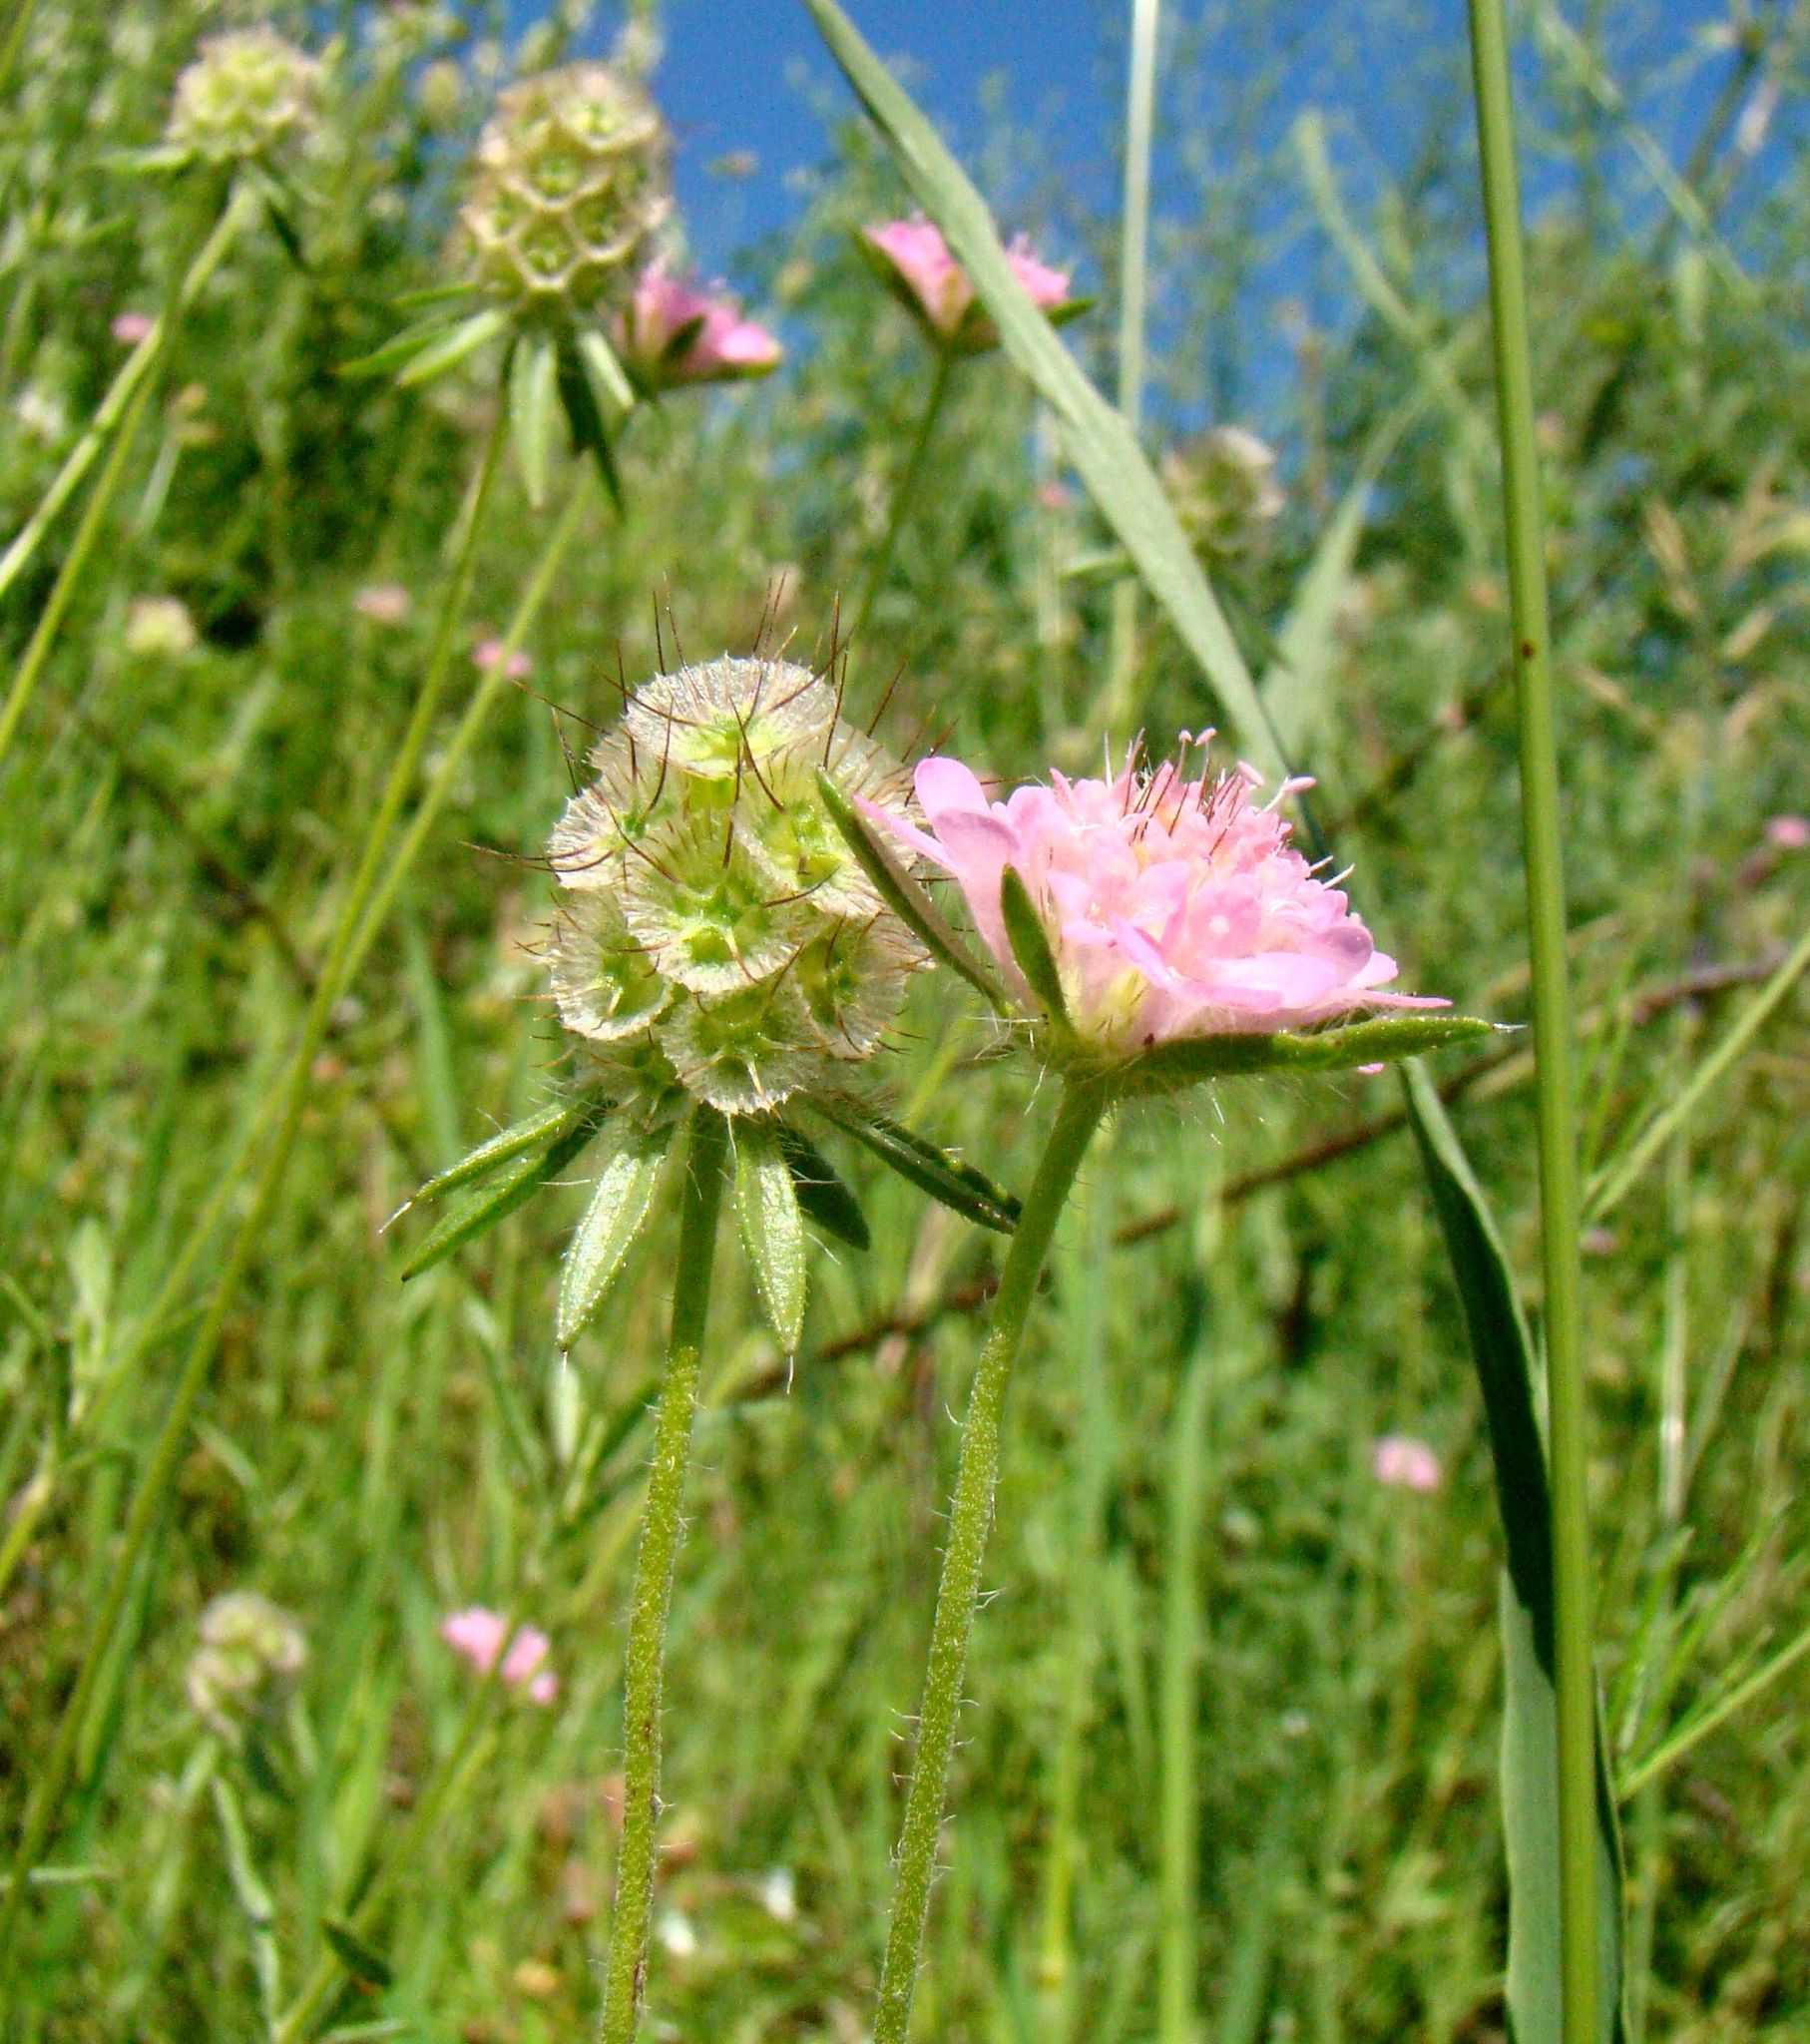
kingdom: Plantae
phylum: Tracheophyta
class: Magnoliopsida
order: Dipsacales
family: Caprifoliaceae
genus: Lomelosia
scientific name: Lomelosia micrantha
